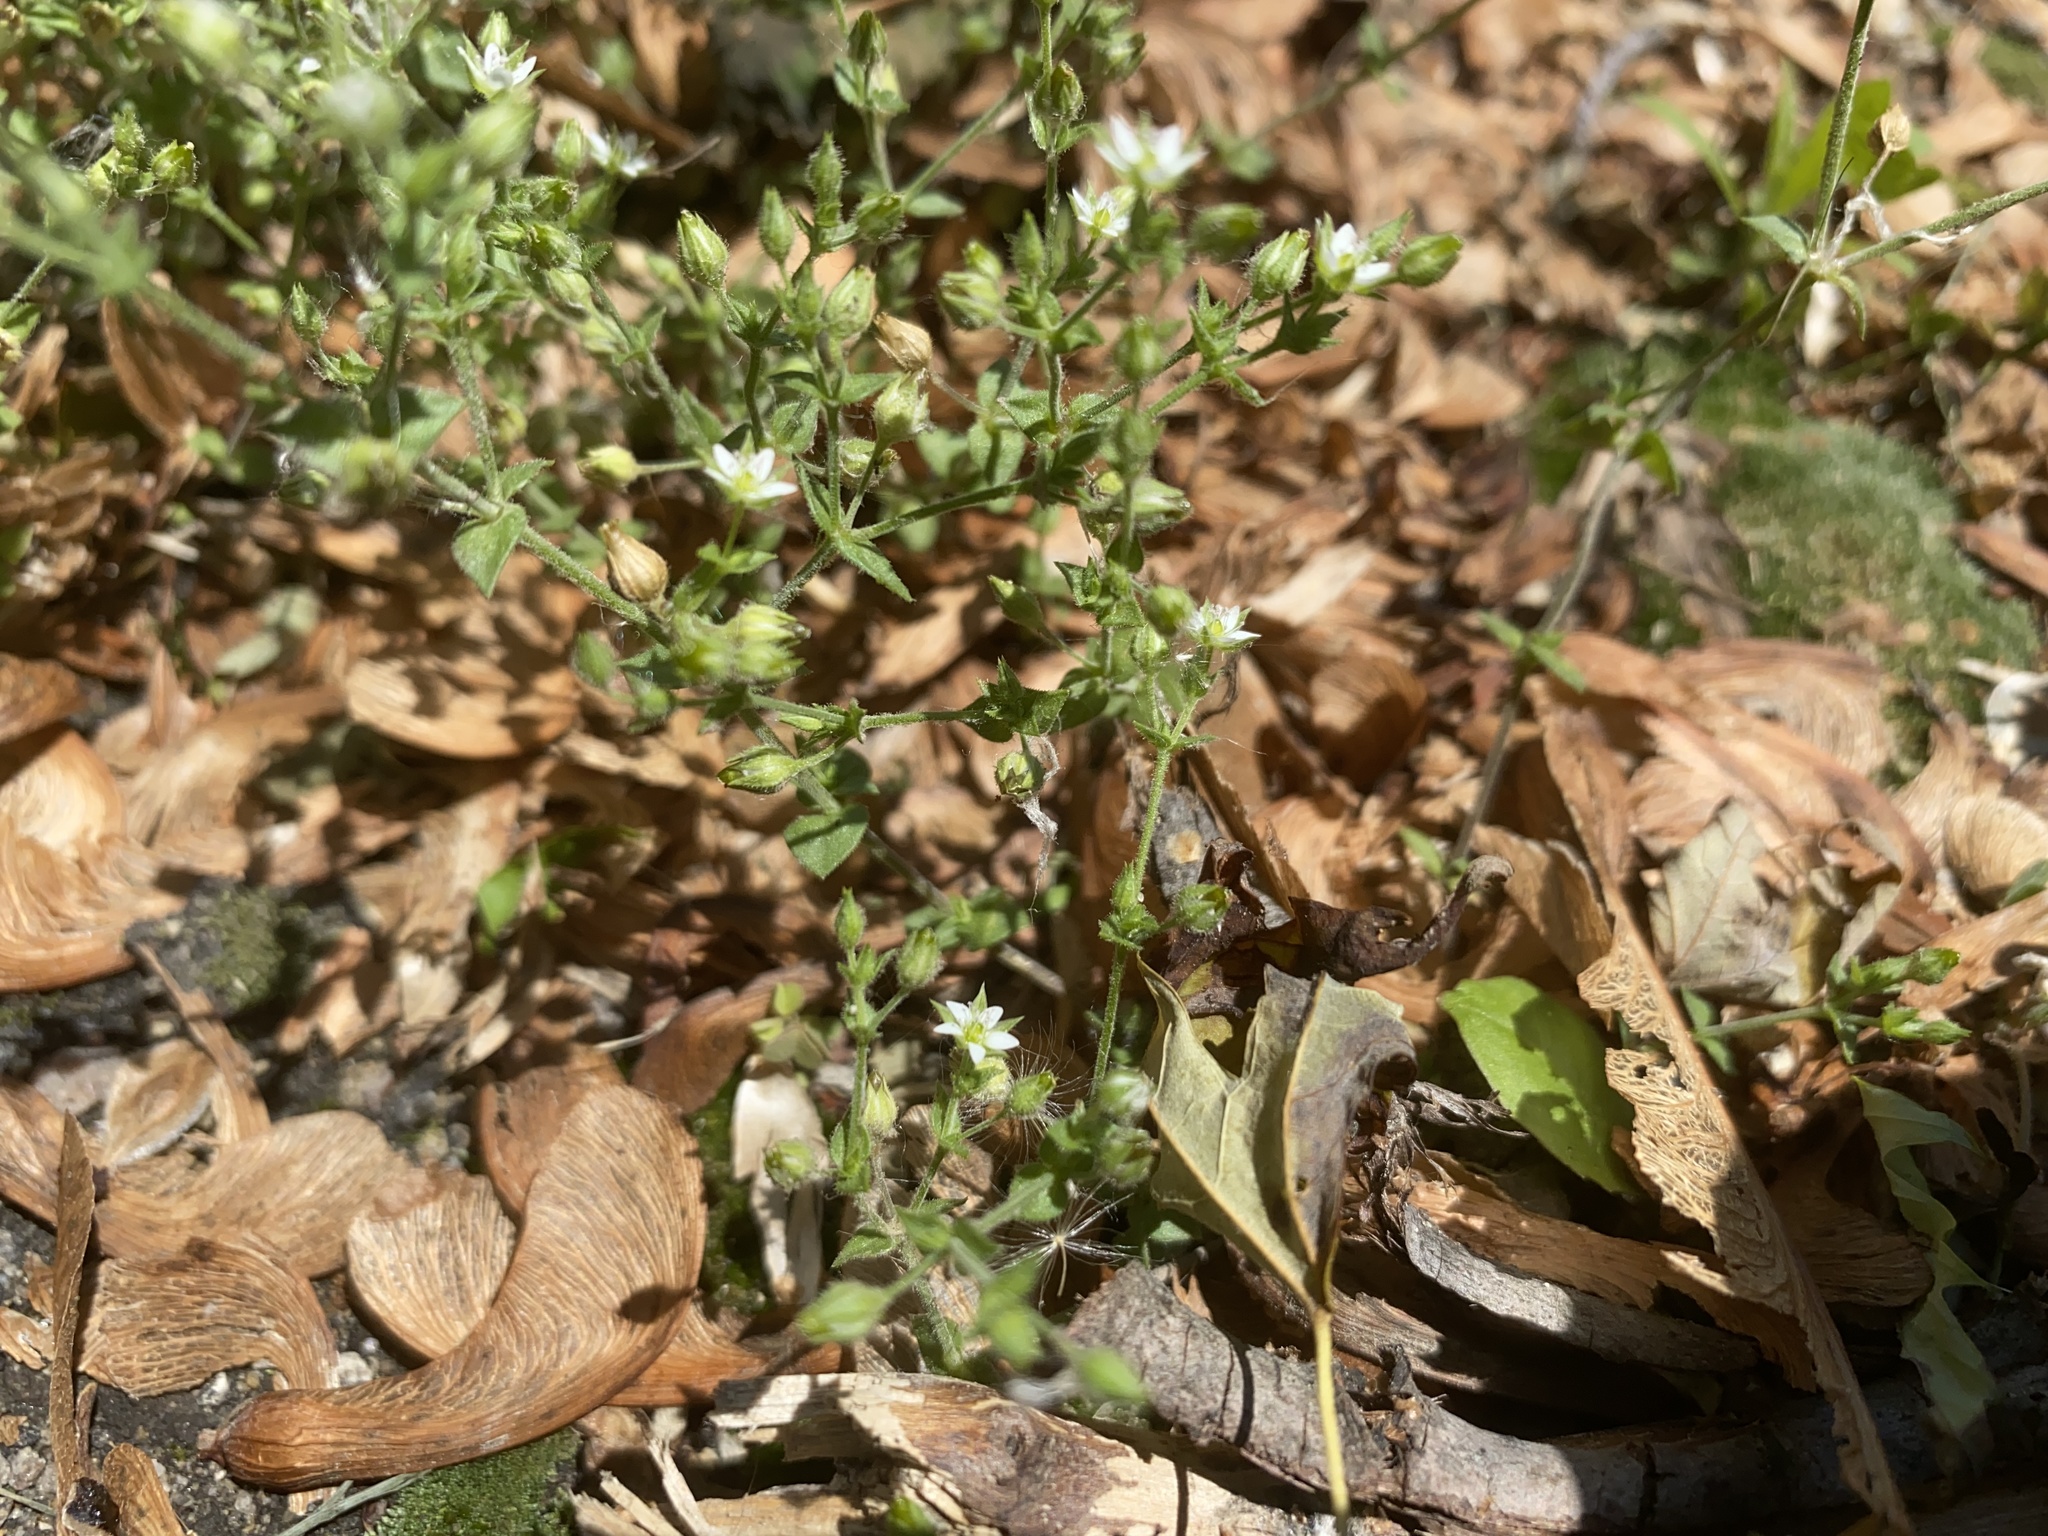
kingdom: Plantae
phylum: Tracheophyta
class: Magnoliopsida
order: Caryophyllales
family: Caryophyllaceae
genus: Arenaria
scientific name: Arenaria serpyllifolia
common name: Thyme-leaved sandwort
